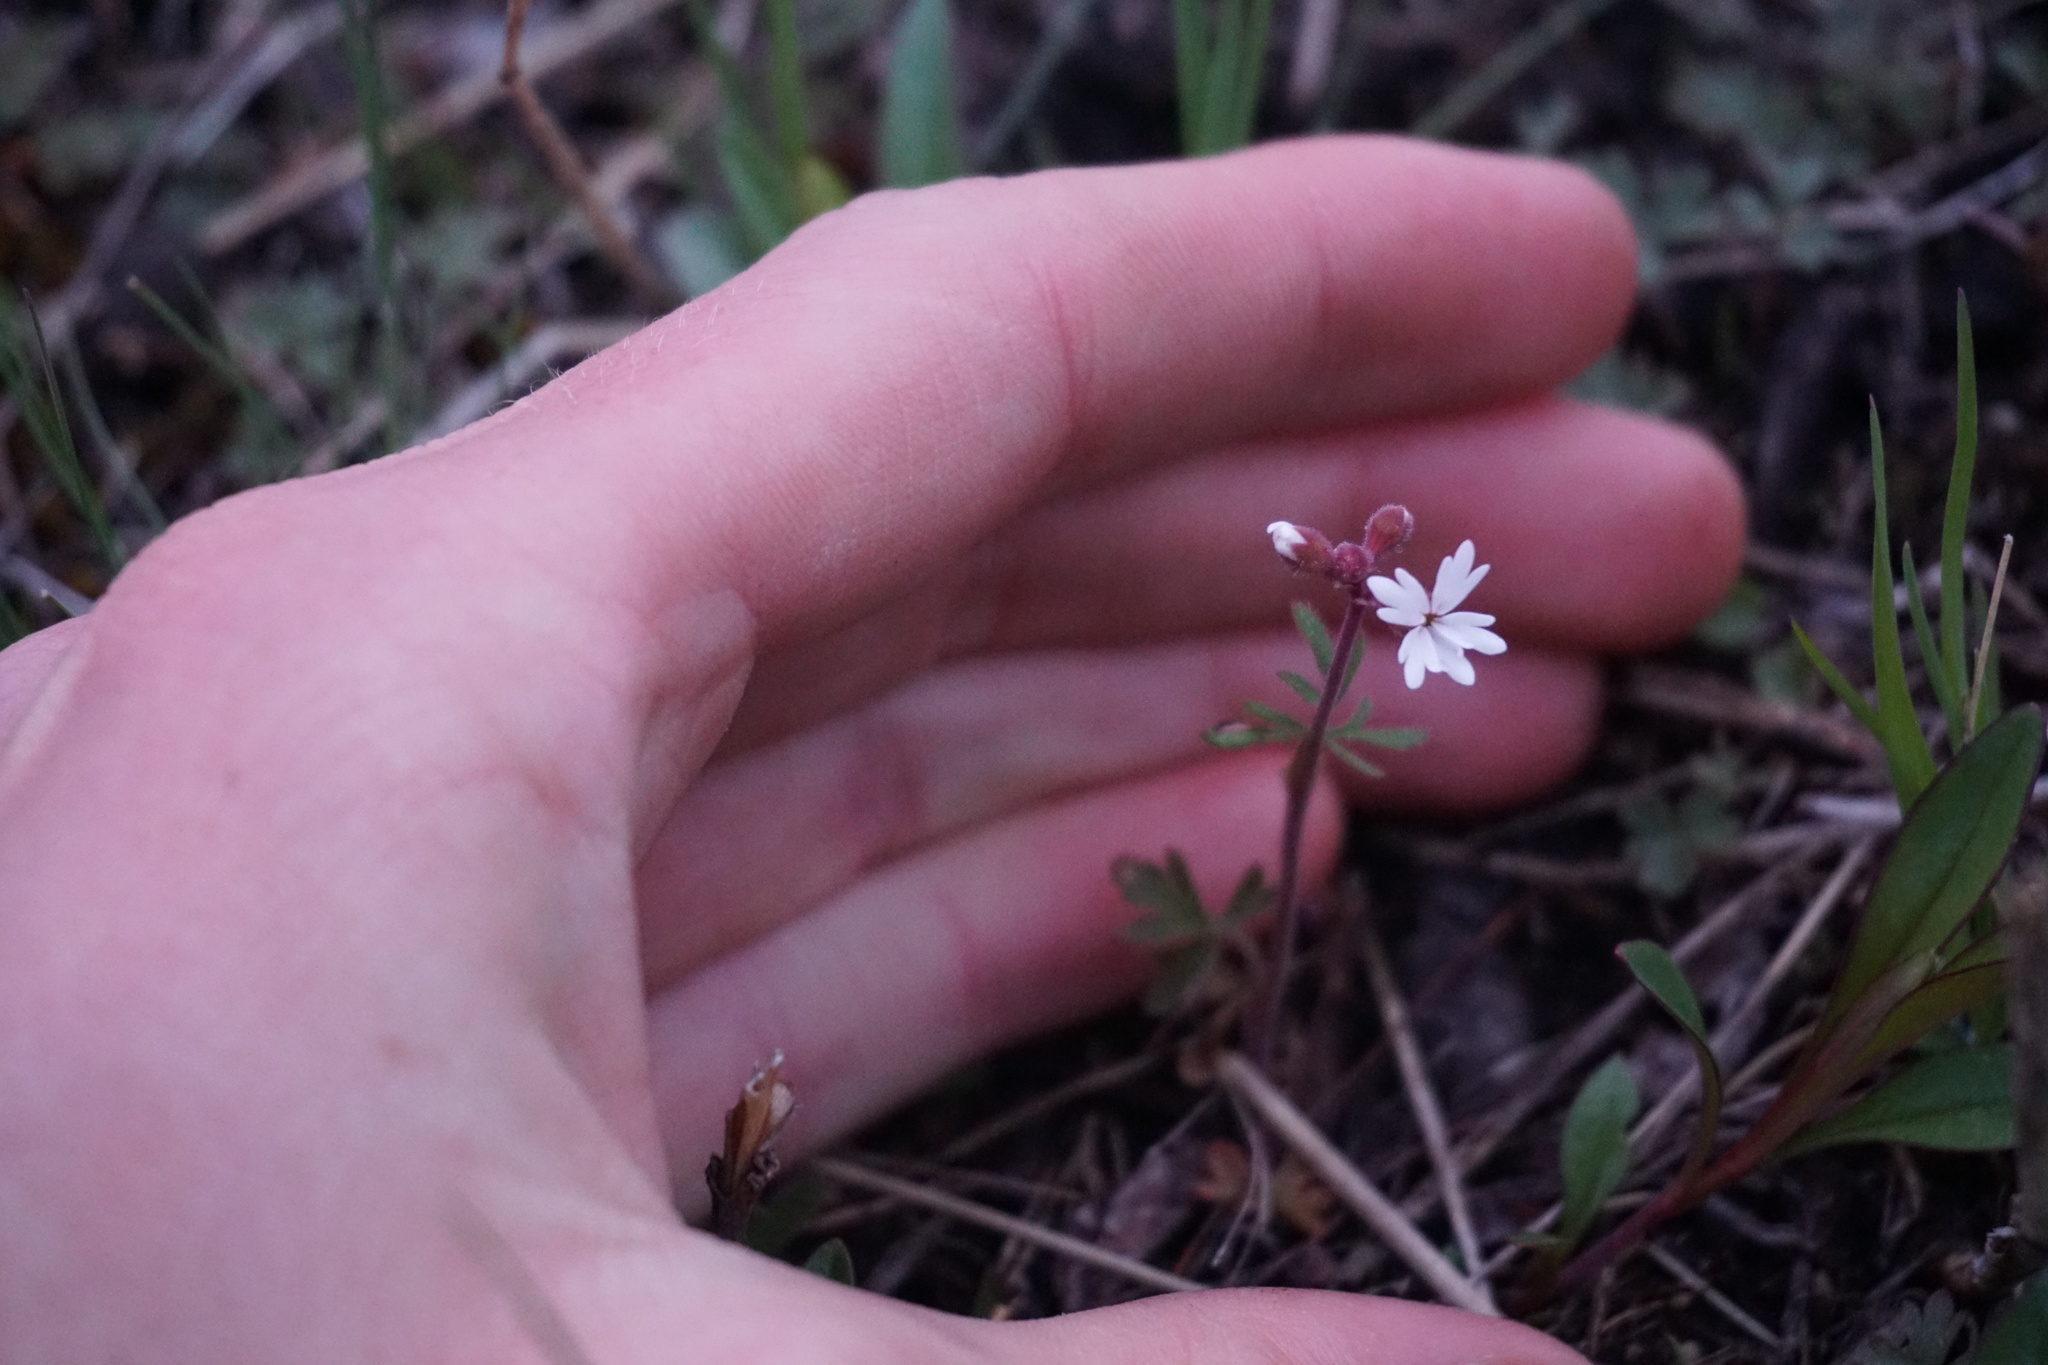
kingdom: Plantae
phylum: Tracheophyta
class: Magnoliopsida
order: Saxifragales
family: Saxifragaceae
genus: Lithophragma
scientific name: Lithophragma parviflorum
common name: Small-flowered fringe-cup
